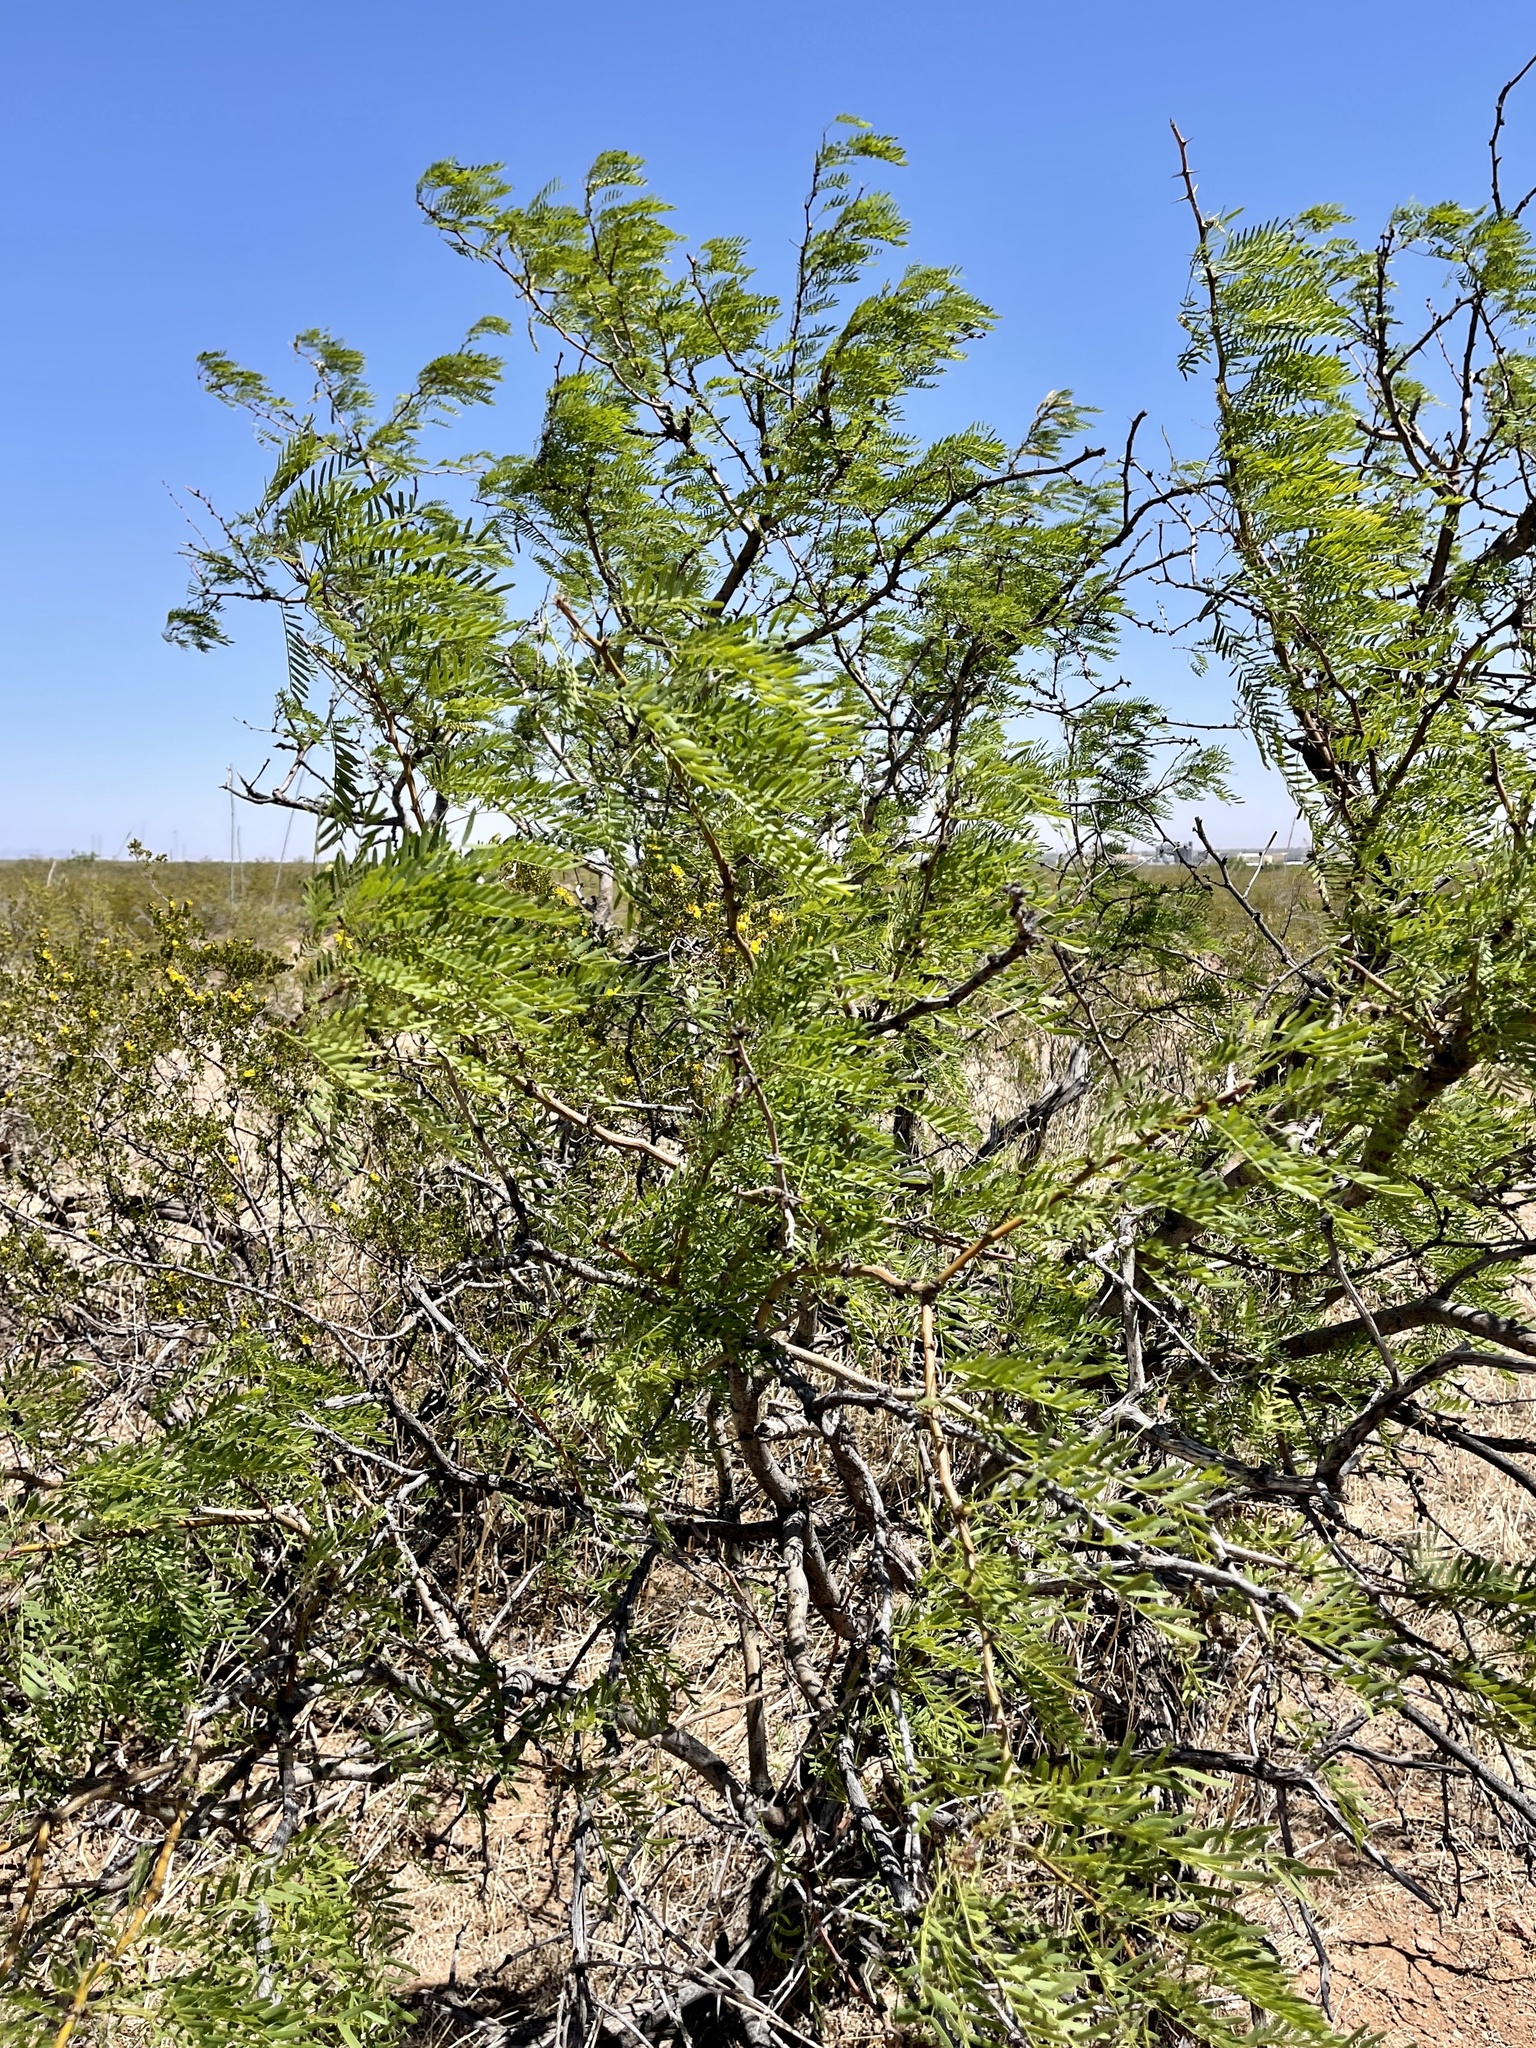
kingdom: Plantae
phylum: Tracheophyta
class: Magnoliopsida
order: Fabales
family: Fabaceae
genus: Prosopis
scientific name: Prosopis glandulosa
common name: Honey mesquite
